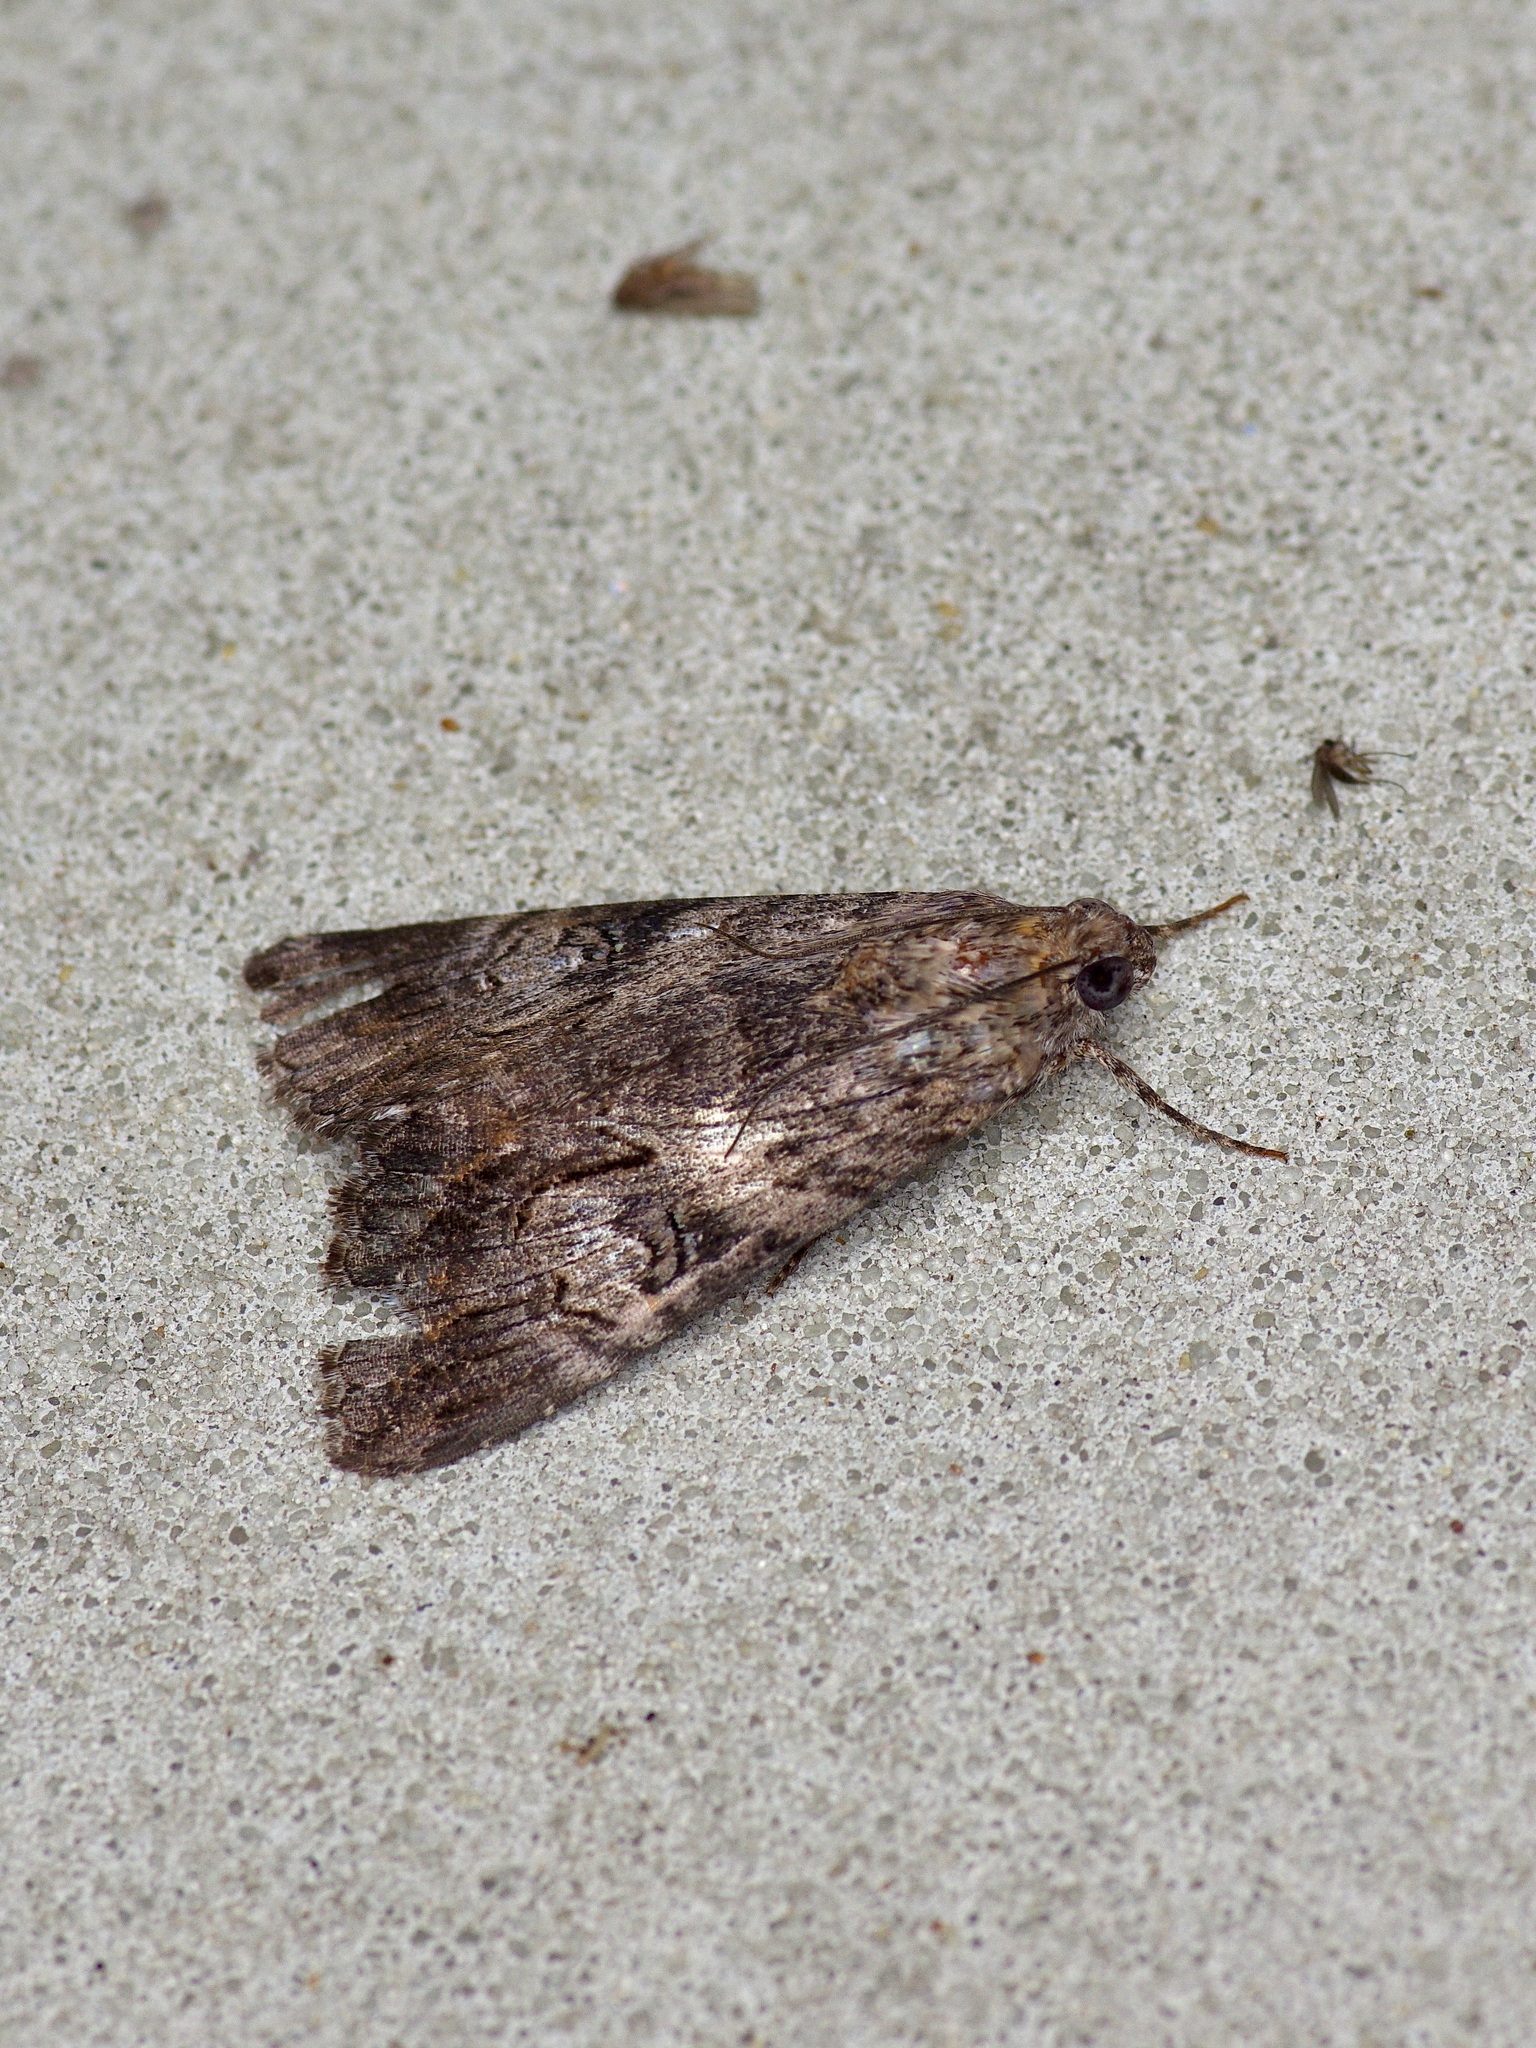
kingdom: Animalia
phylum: Arthropoda
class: Insecta
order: Lepidoptera
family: Erebidae
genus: Melipotis
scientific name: Melipotis jucunda
